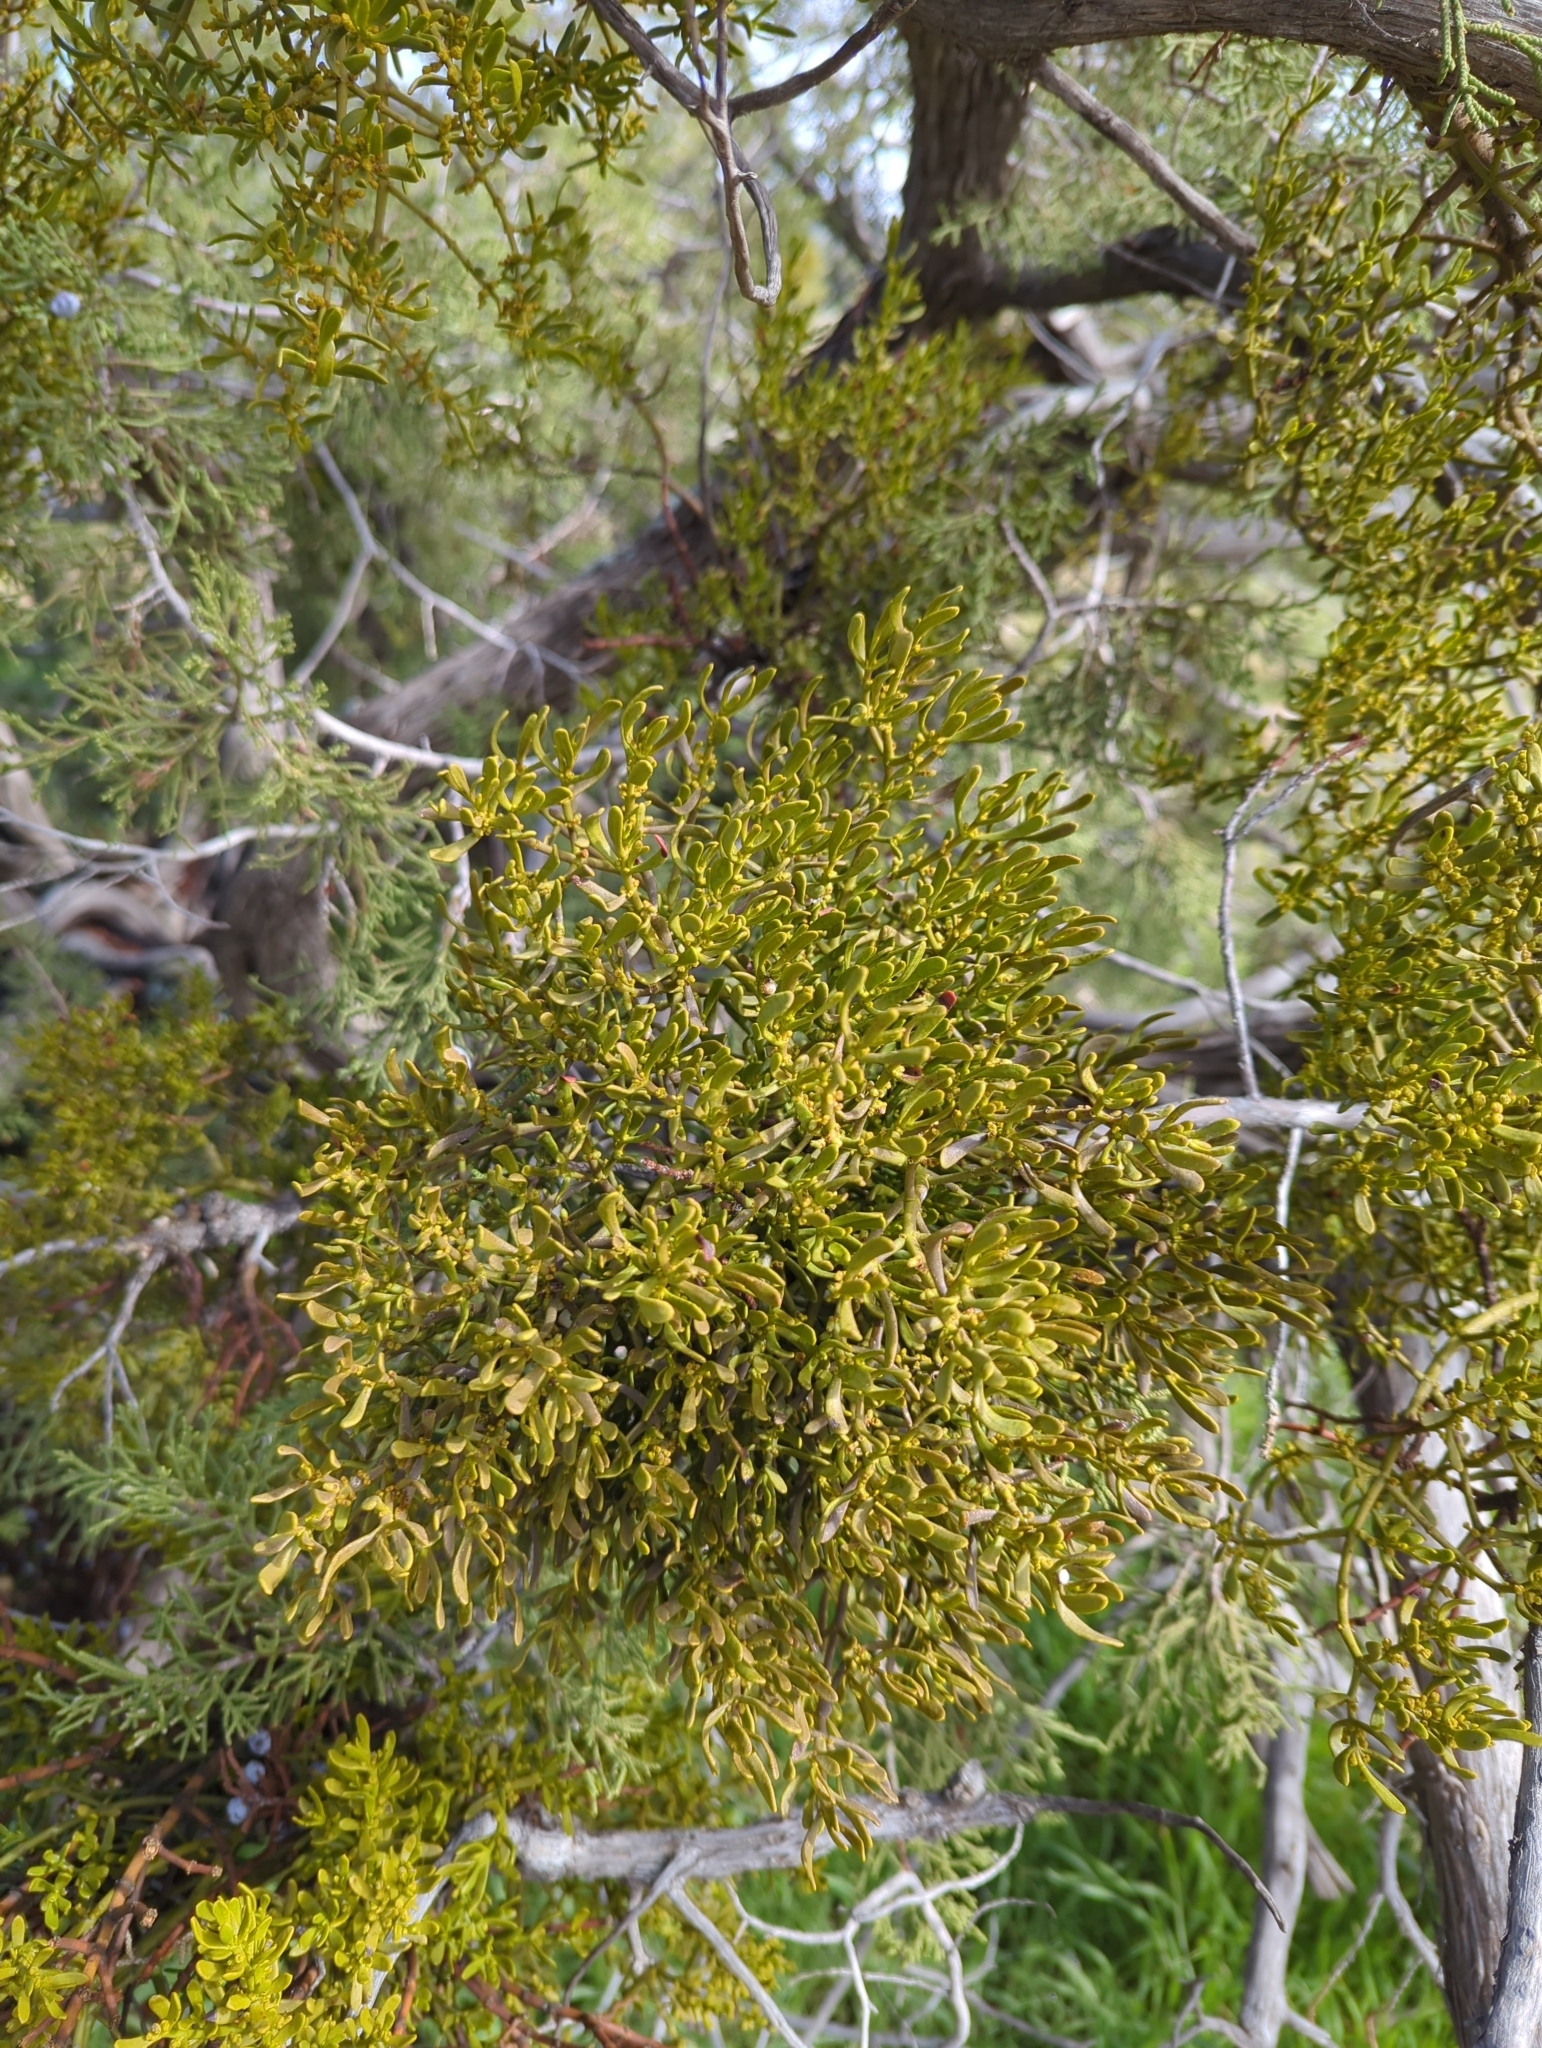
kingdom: Plantae
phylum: Tracheophyta
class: Magnoliopsida
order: Santalales
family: Viscaceae
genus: Phoradendron
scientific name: Phoradendron bolleanum
